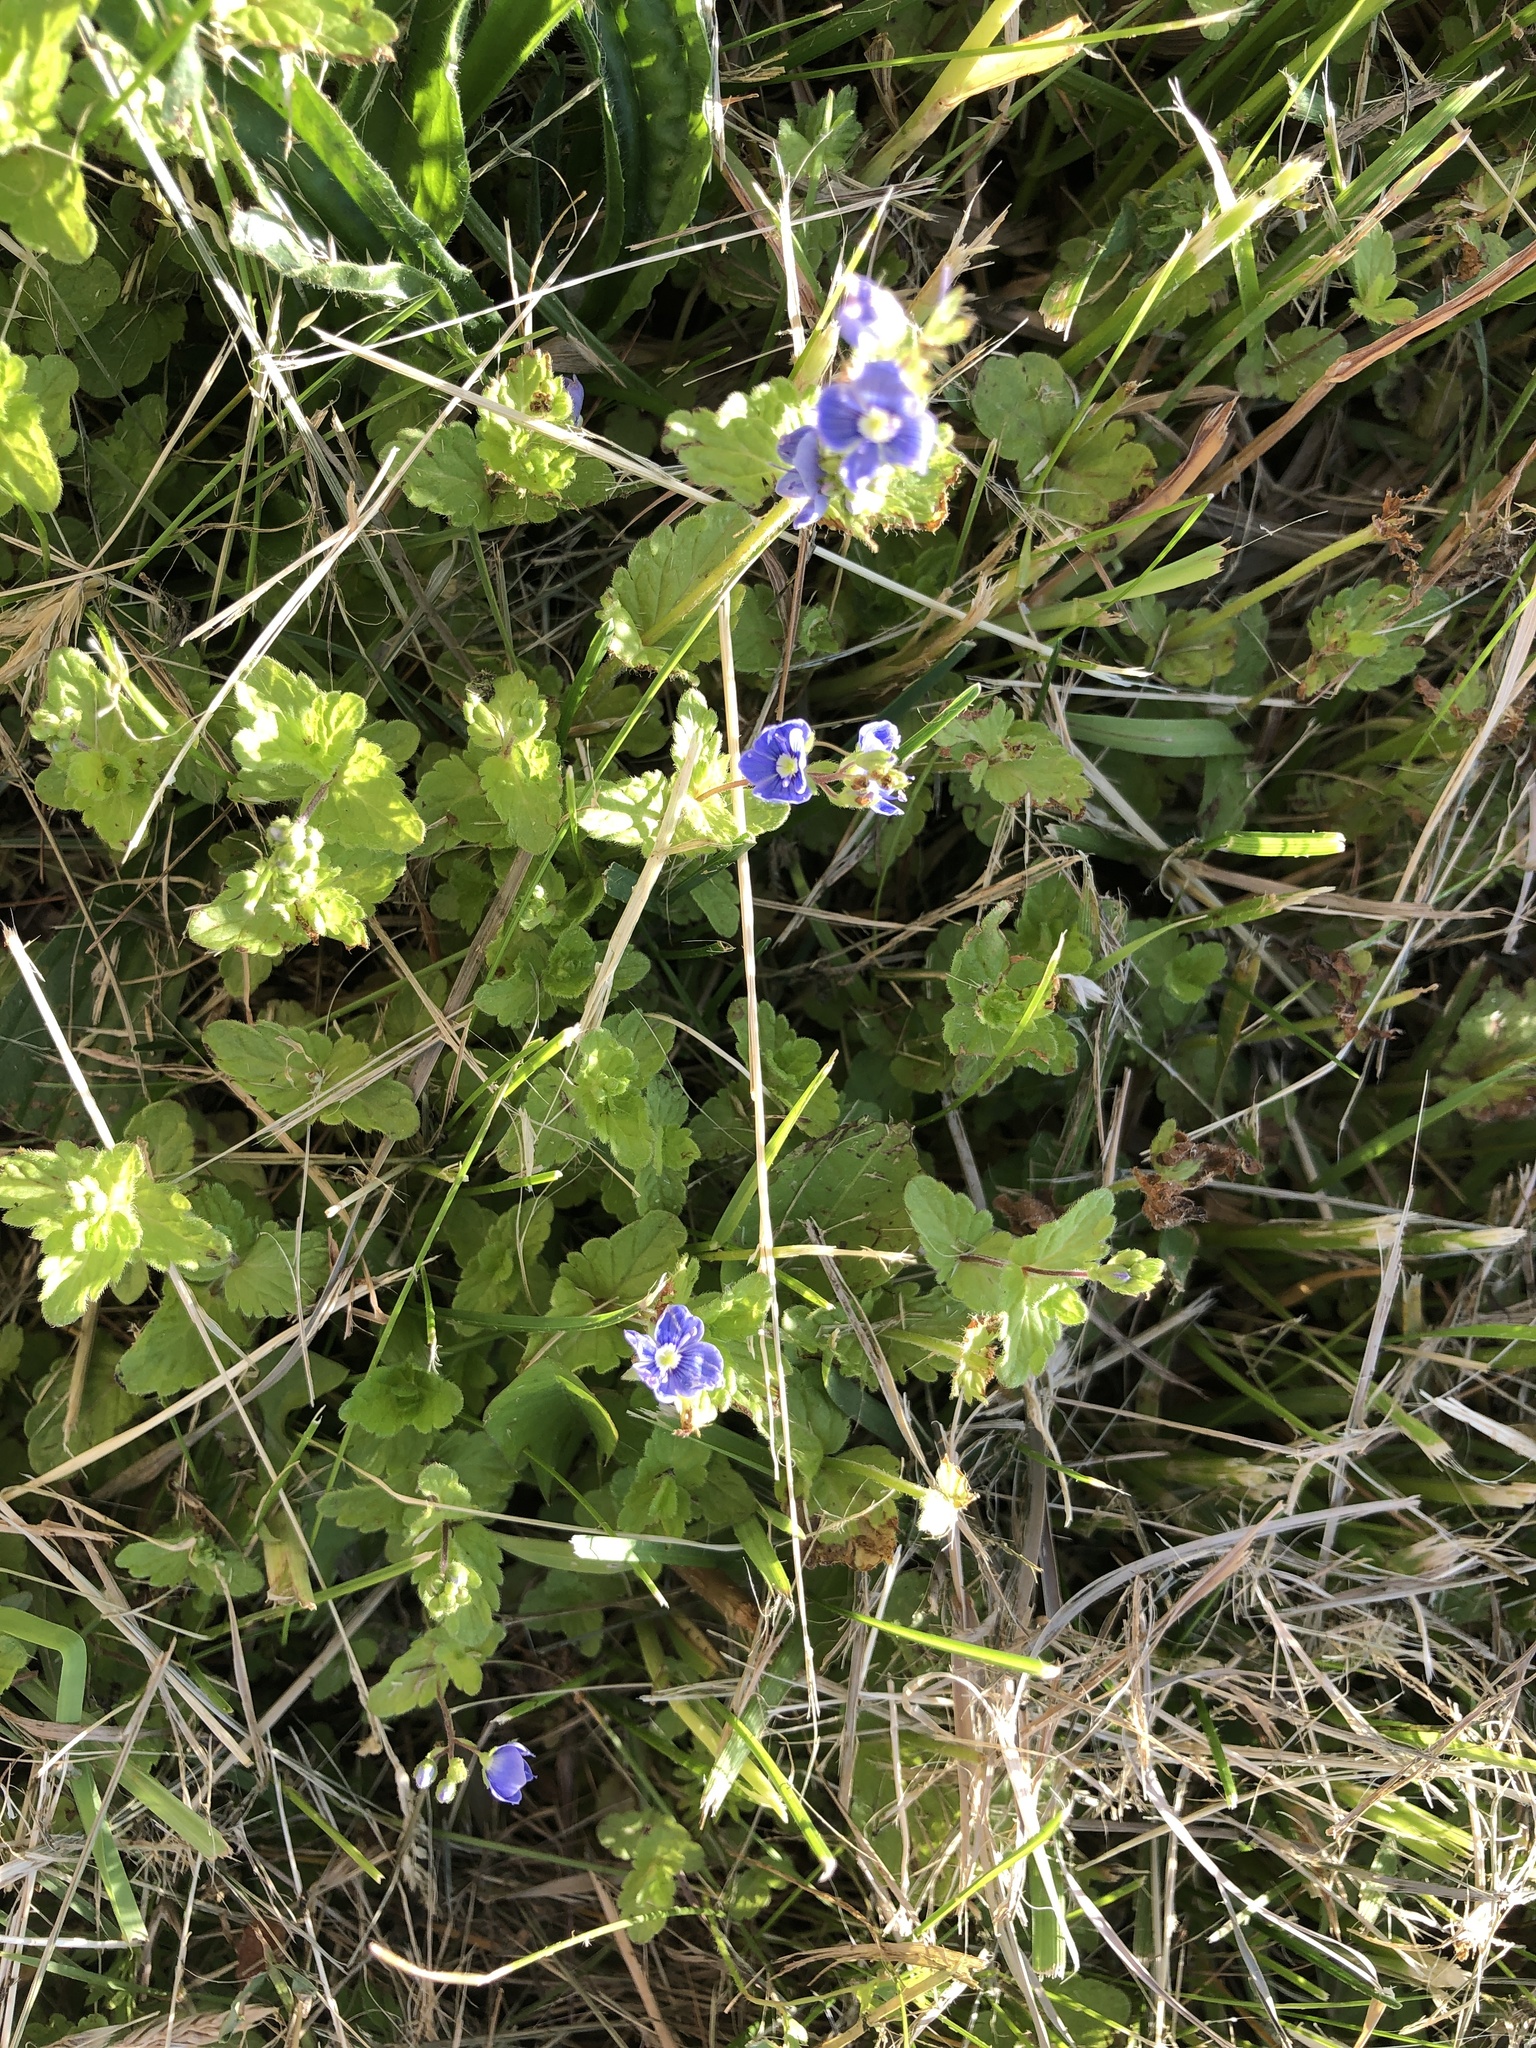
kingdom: Plantae
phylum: Tracheophyta
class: Magnoliopsida
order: Lamiales
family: Plantaginaceae
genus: Veronica
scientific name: Veronica chamaedrys
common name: Germander speedwell
